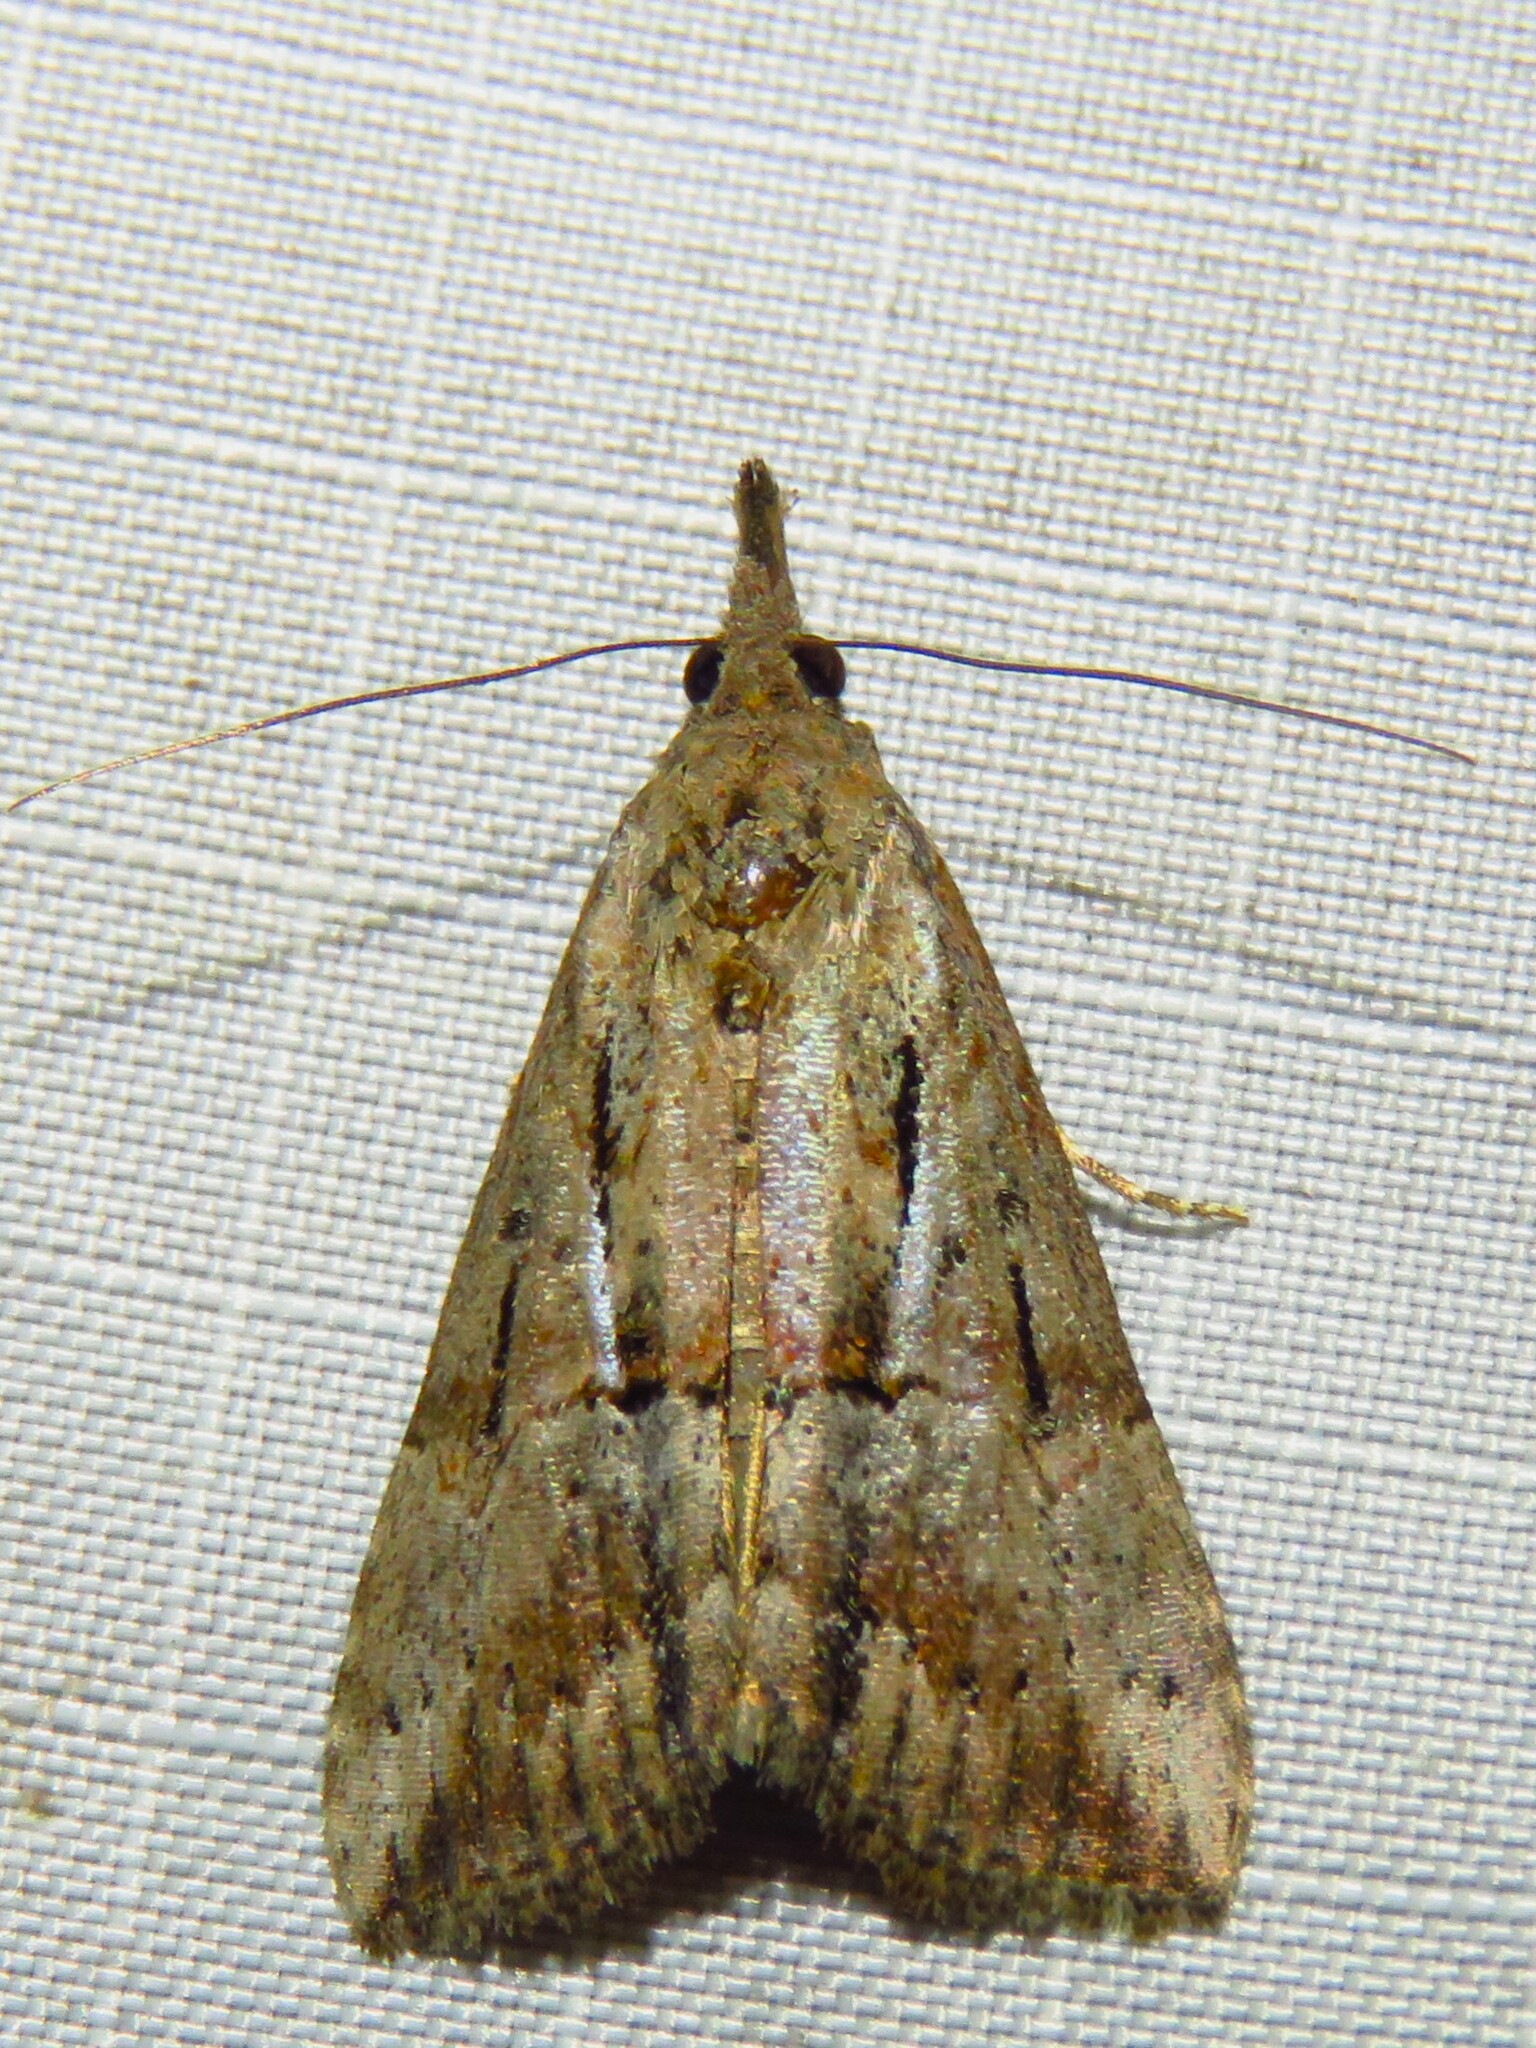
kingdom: Animalia
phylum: Arthropoda
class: Insecta
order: Lepidoptera
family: Erebidae
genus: Hypena
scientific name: Hypena scabra
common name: Green cloverworm
